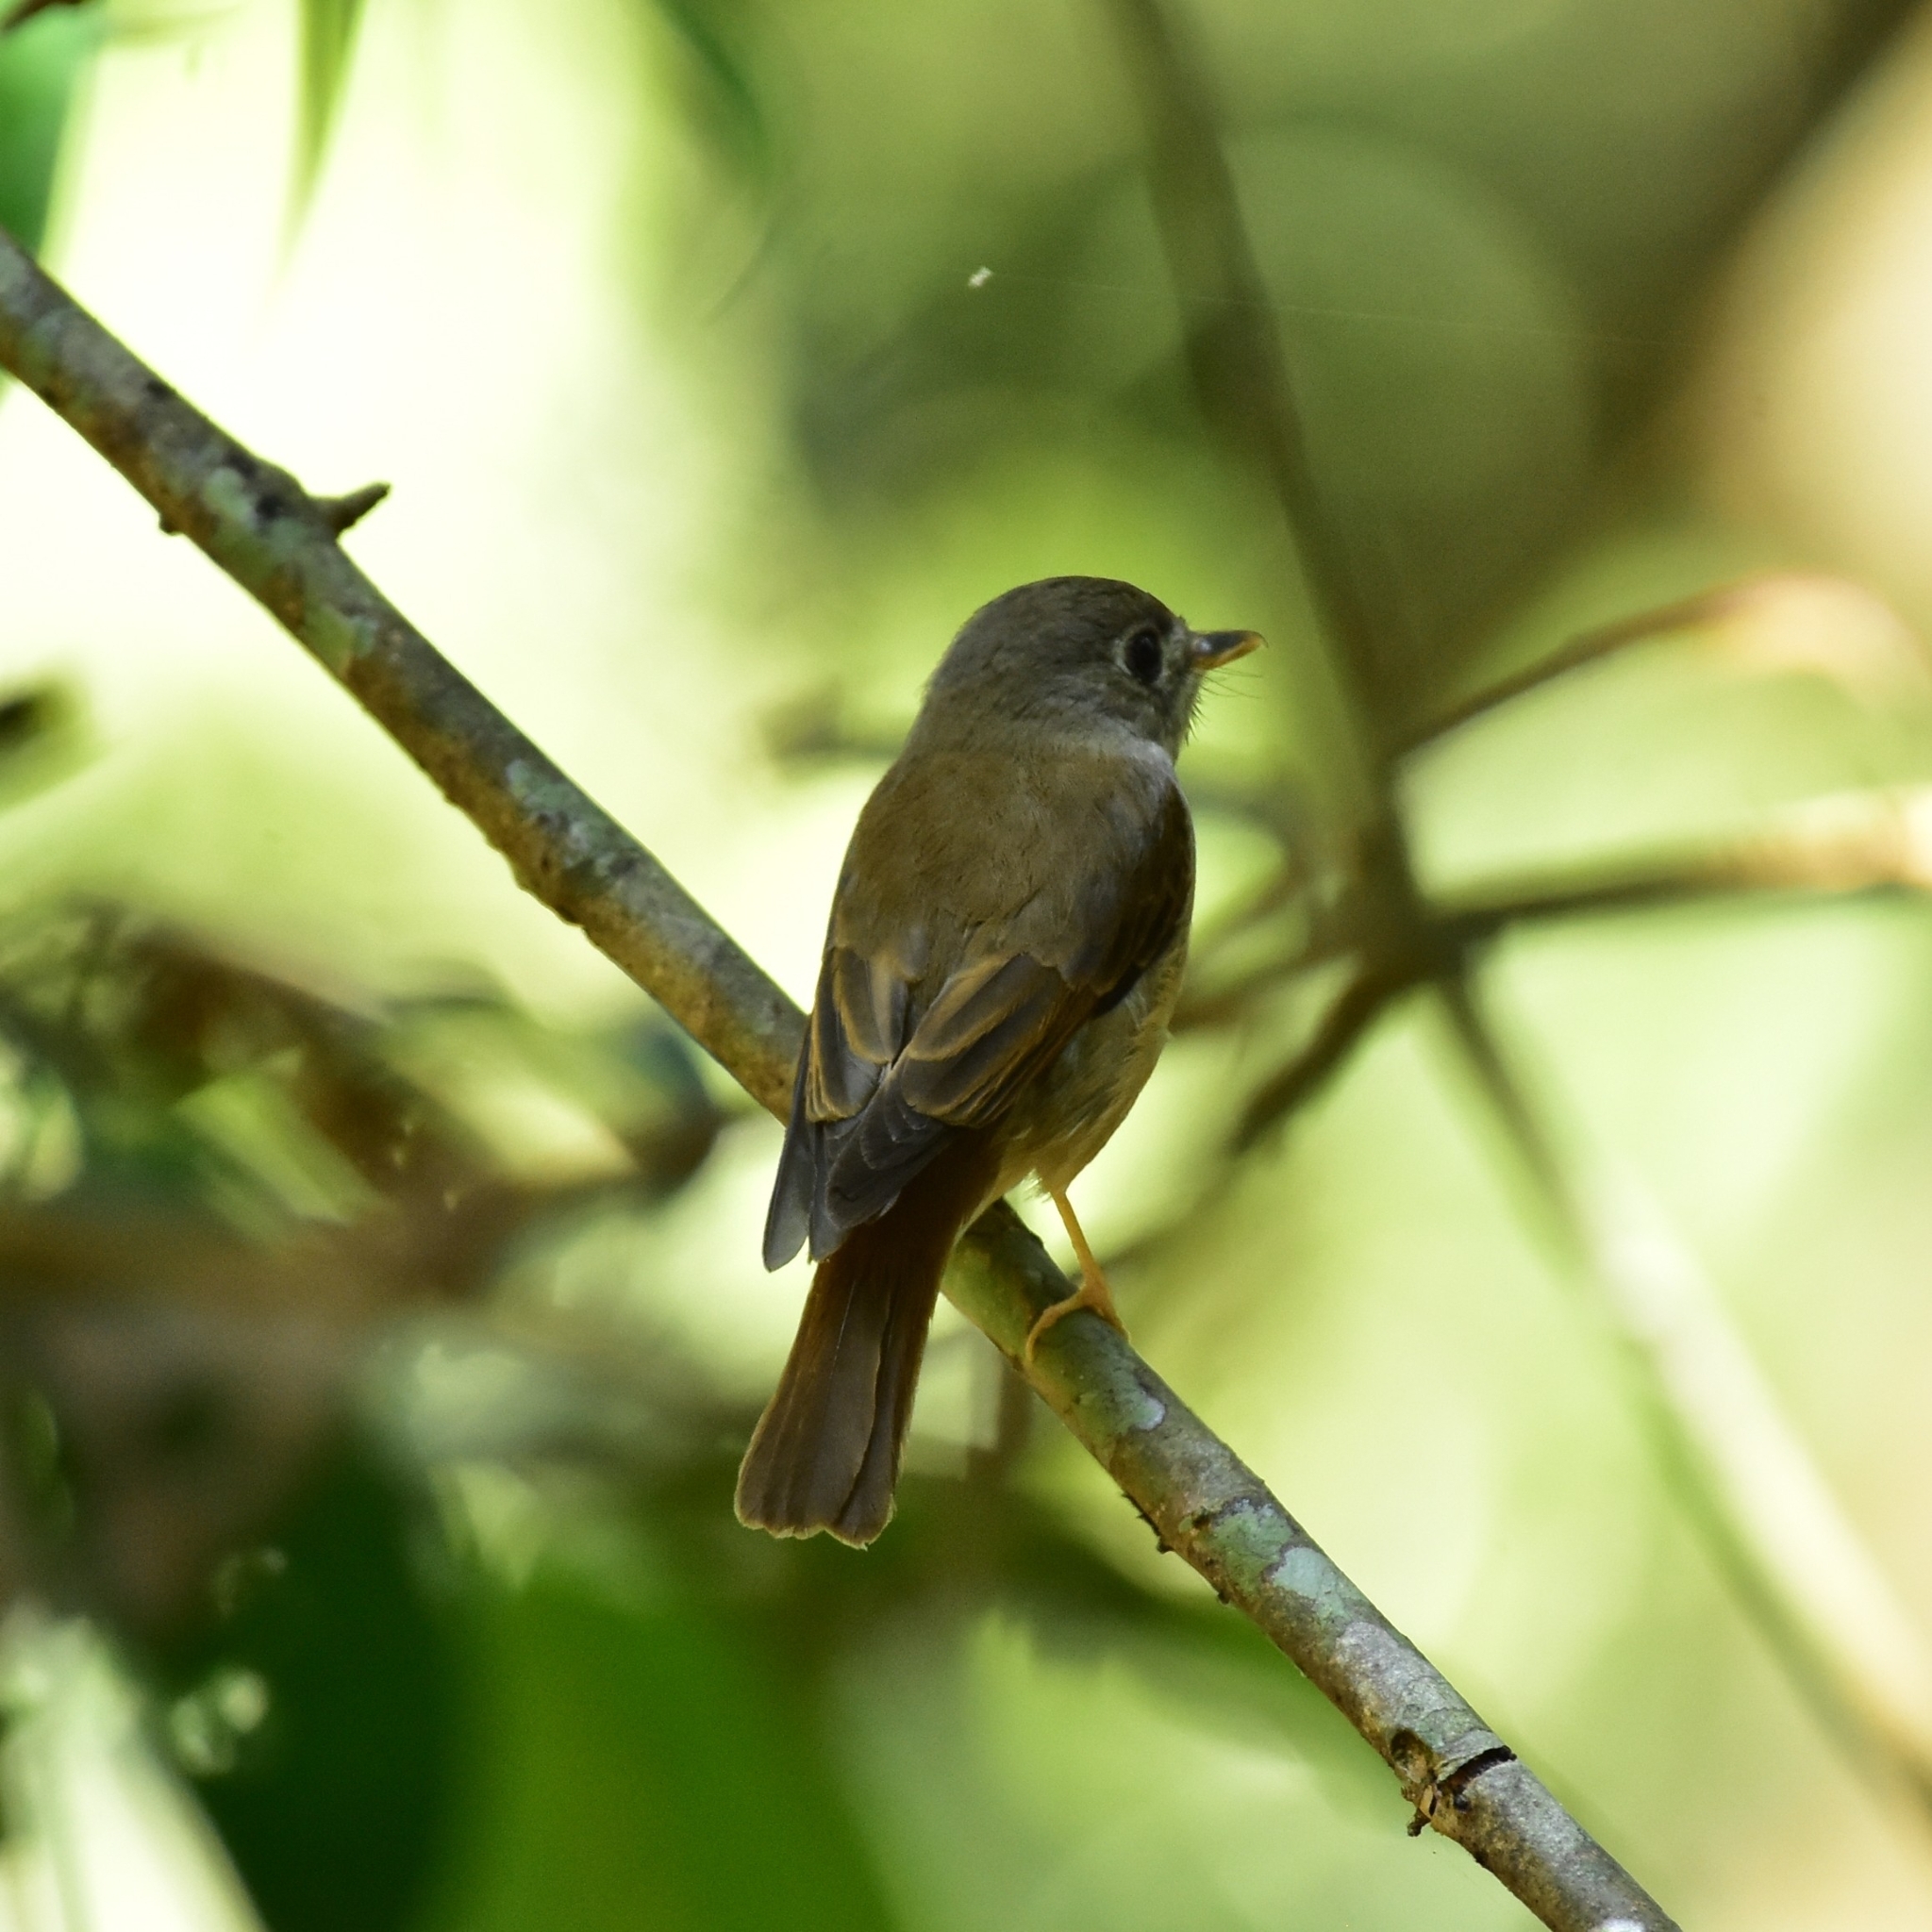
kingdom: Animalia
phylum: Chordata
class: Aves
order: Passeriformes
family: Muscicapidae
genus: Muscicapa
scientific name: Muscicapa muttui
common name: Brown-breasted flycatcher
